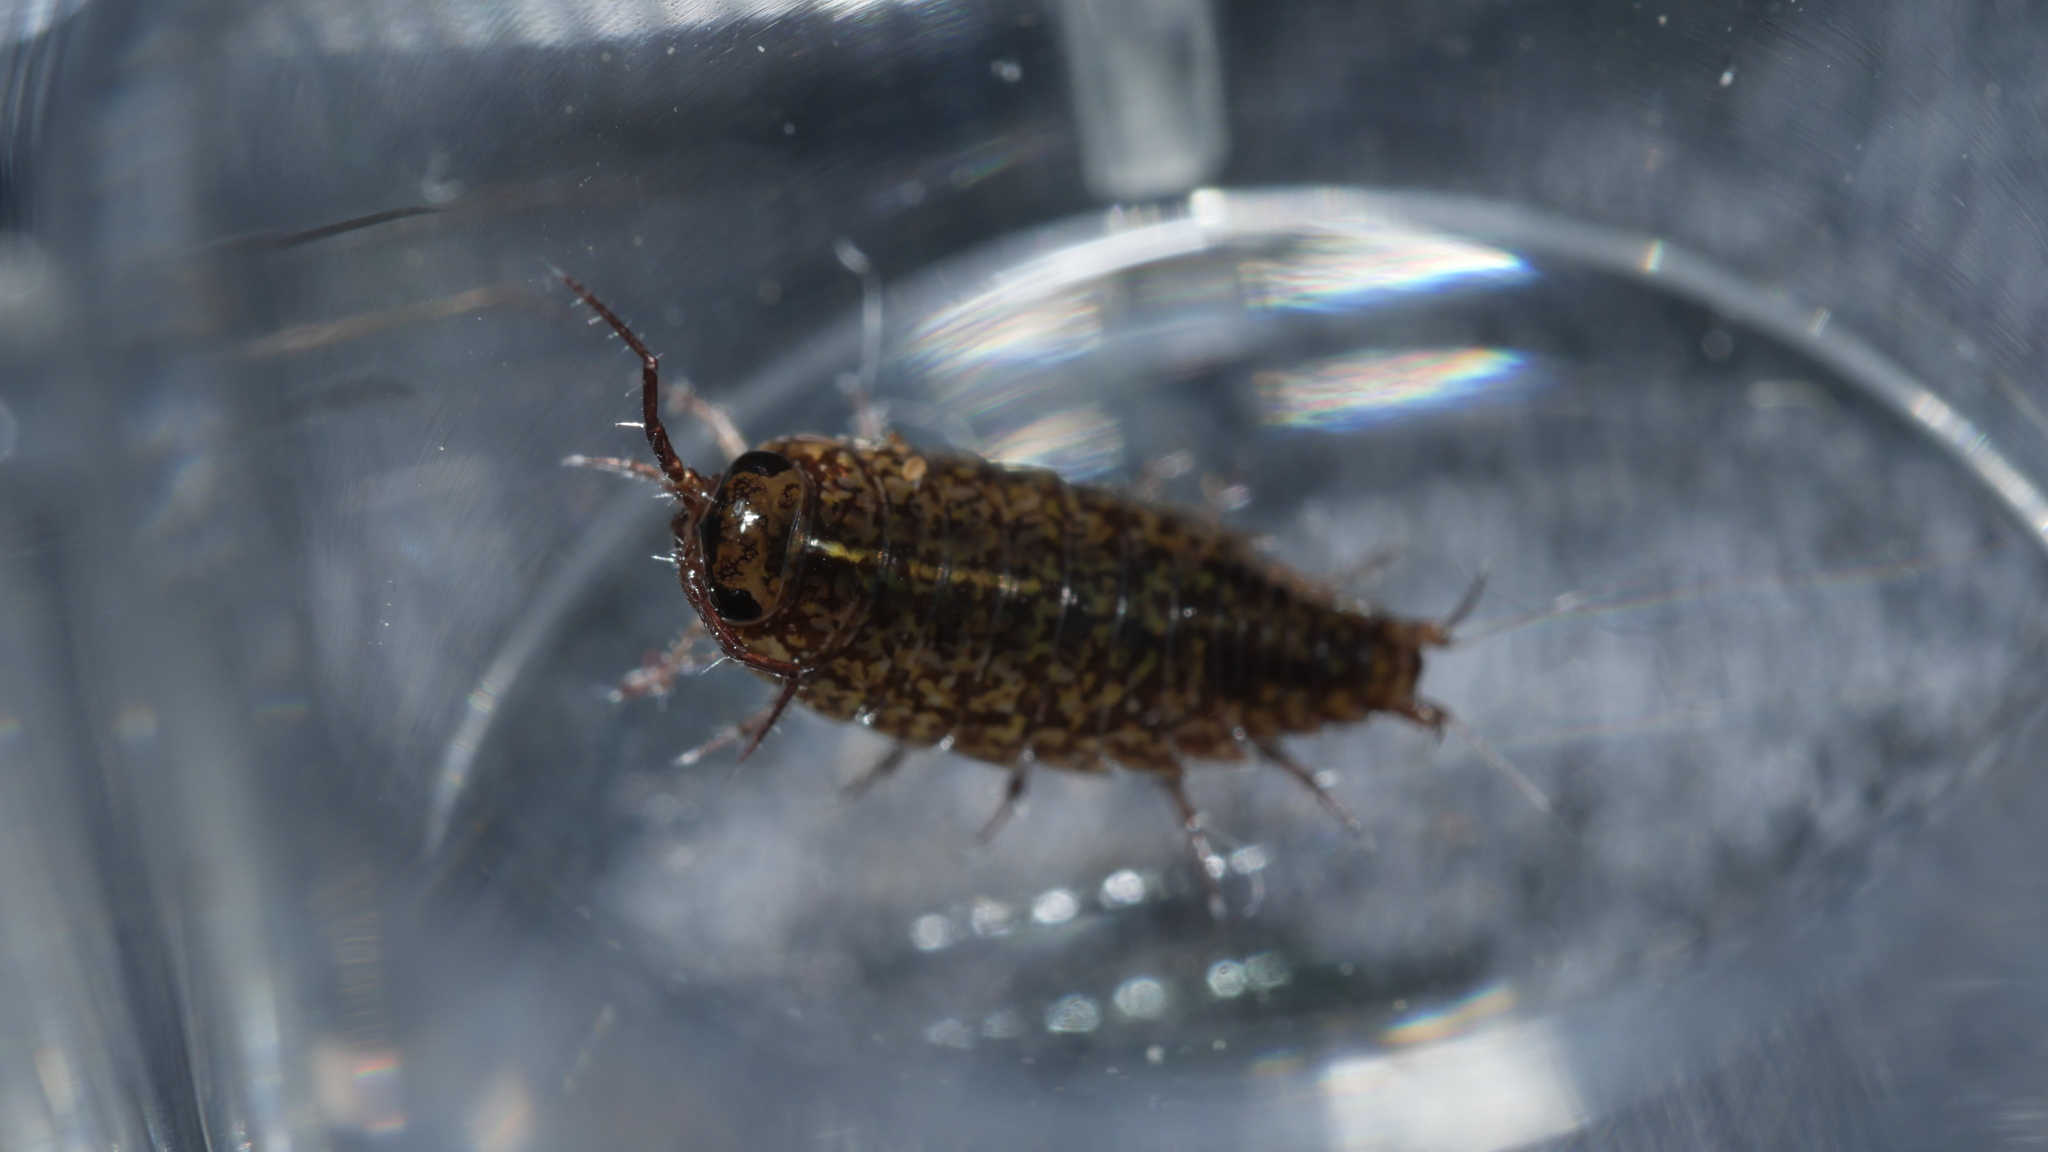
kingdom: Animalia
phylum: Arthropoda
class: Malacostraca
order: Isopoda
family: Ligiidae
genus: Ligidium
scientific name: Ligidium elrodii
